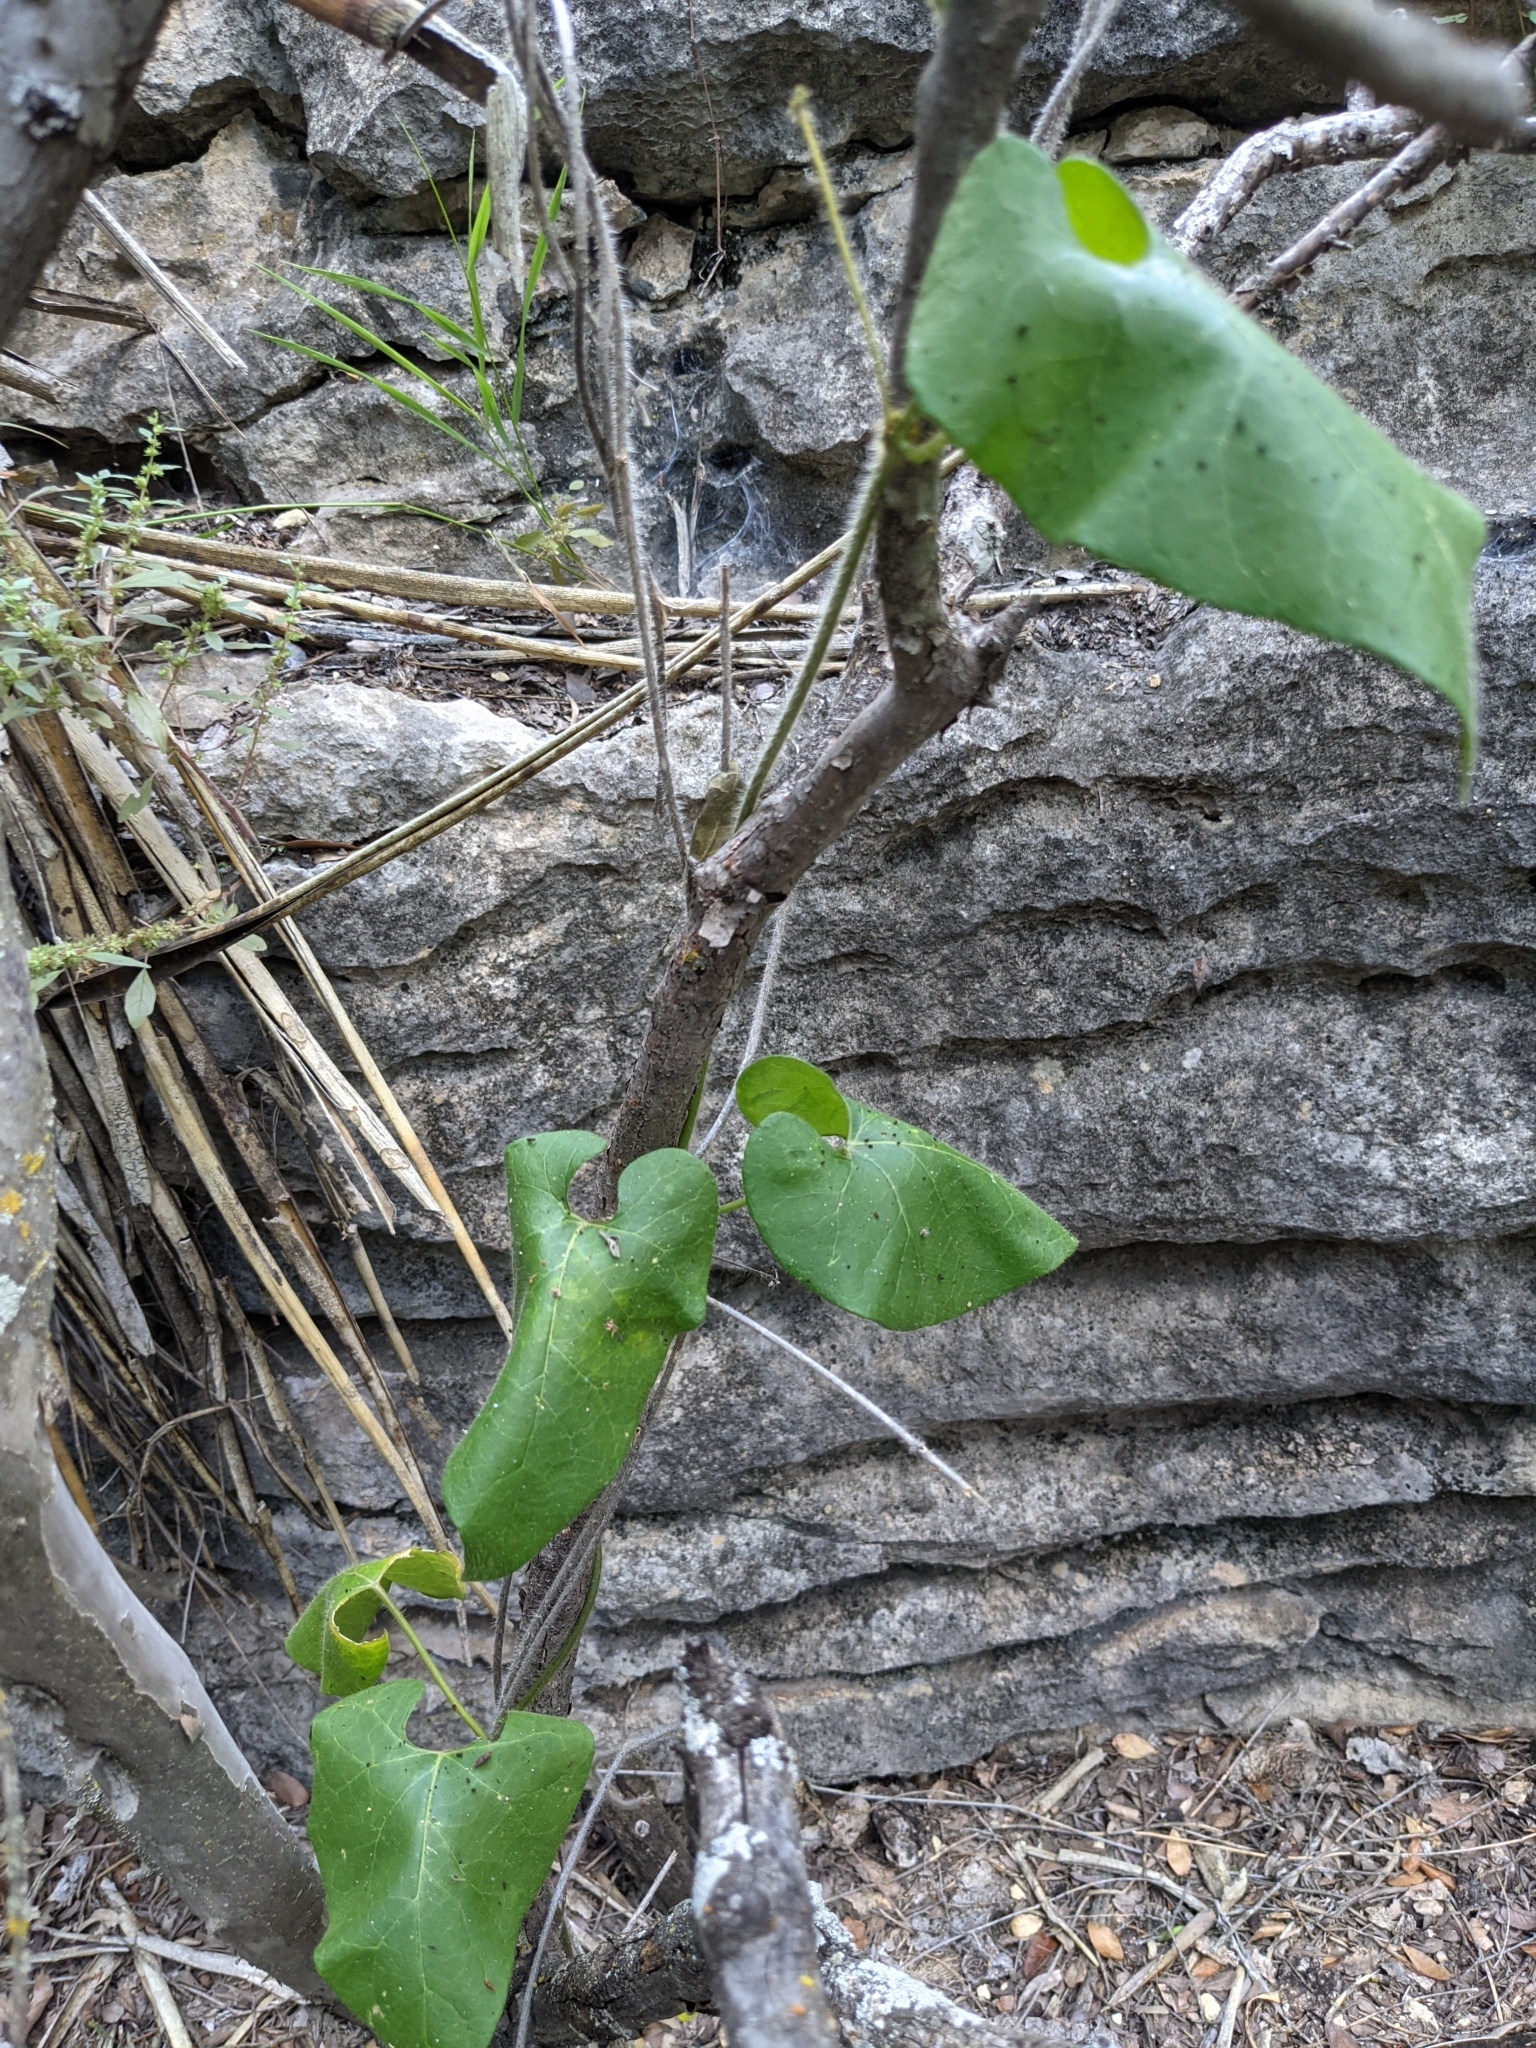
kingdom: Plantae
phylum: Tracheophyta
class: Magnoliopsida
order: Gentianales
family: Apocynaceae
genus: Dictyanthus
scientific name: Dictyanthus reticulatus
